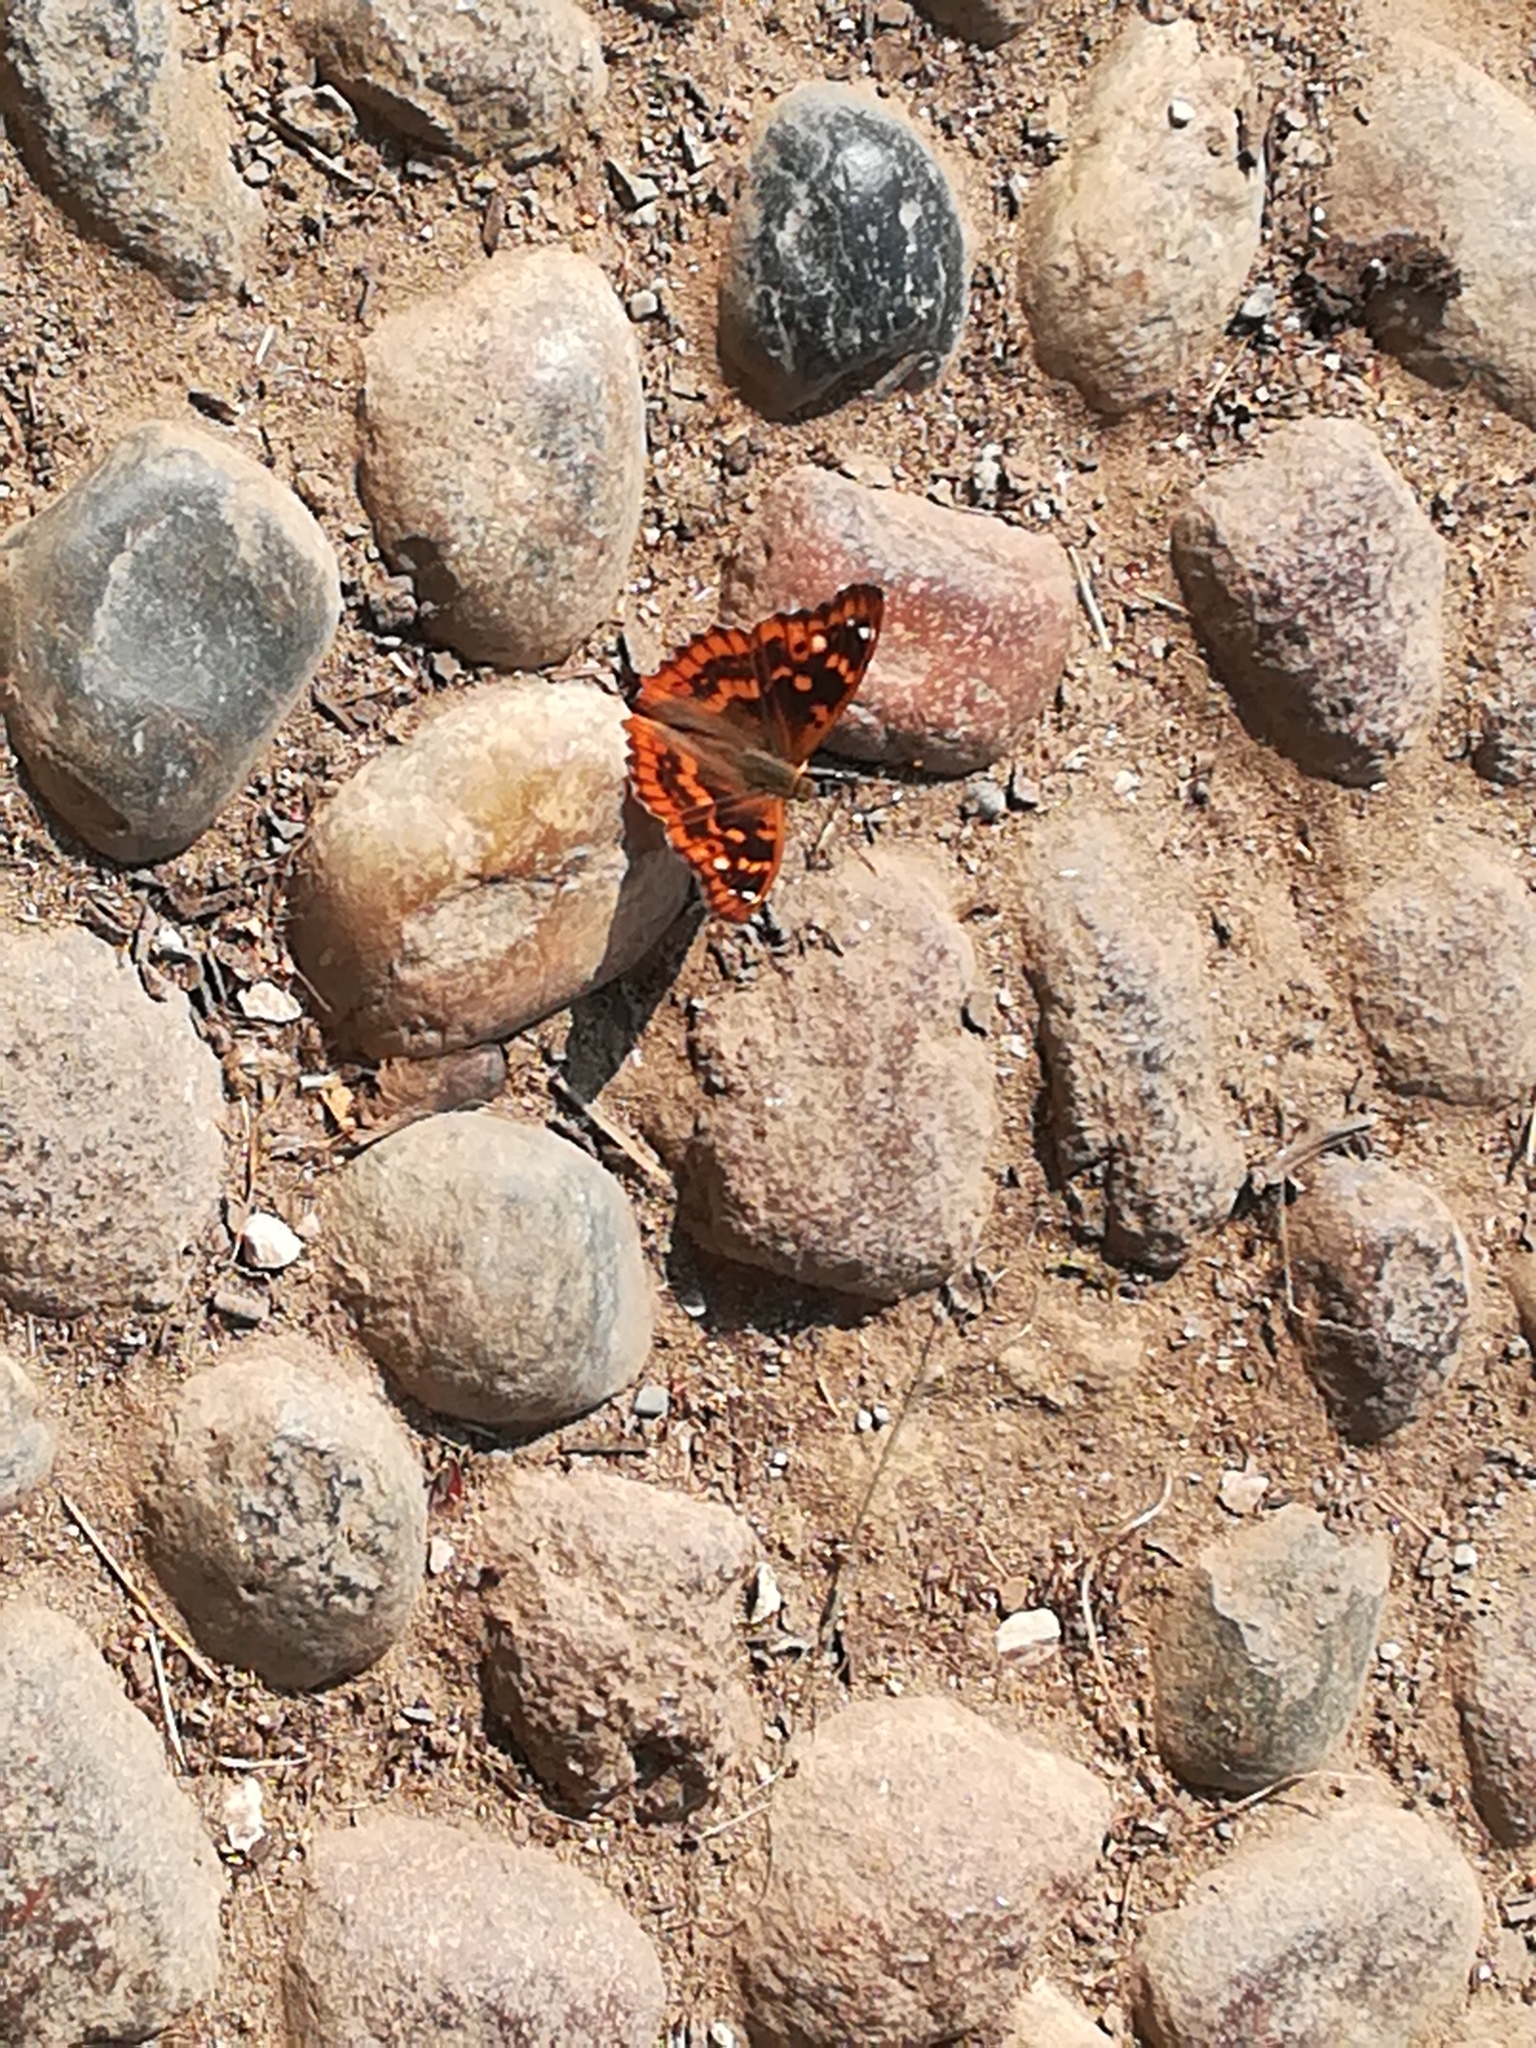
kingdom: Animalia
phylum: Arthropoda
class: Insecta
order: Lepidoptera
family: Nymphalidae
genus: Apatura
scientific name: Apatura ilia
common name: Lesser purple emperor
